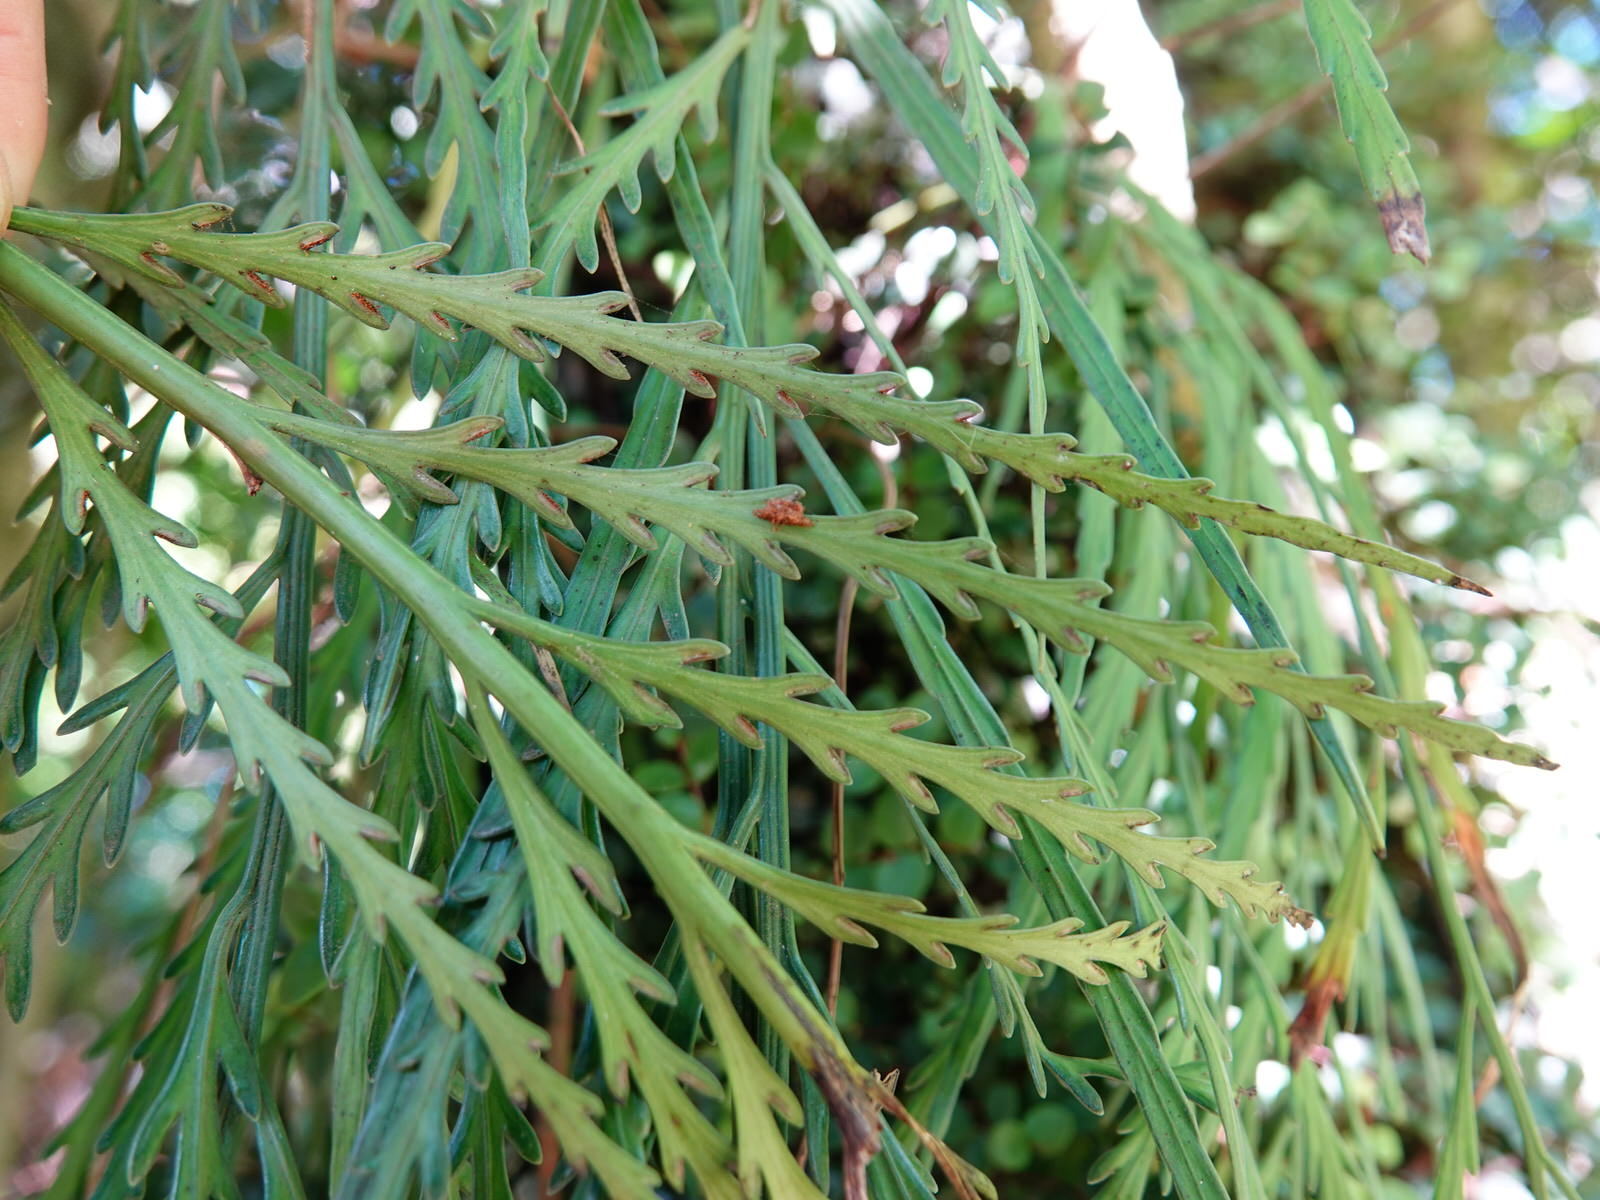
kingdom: Plantae
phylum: Tracheophyta
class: Polypodiopsida
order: Polypodiales
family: Aspleniaceae
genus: Asplenium
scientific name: Asplenium flaccidum
